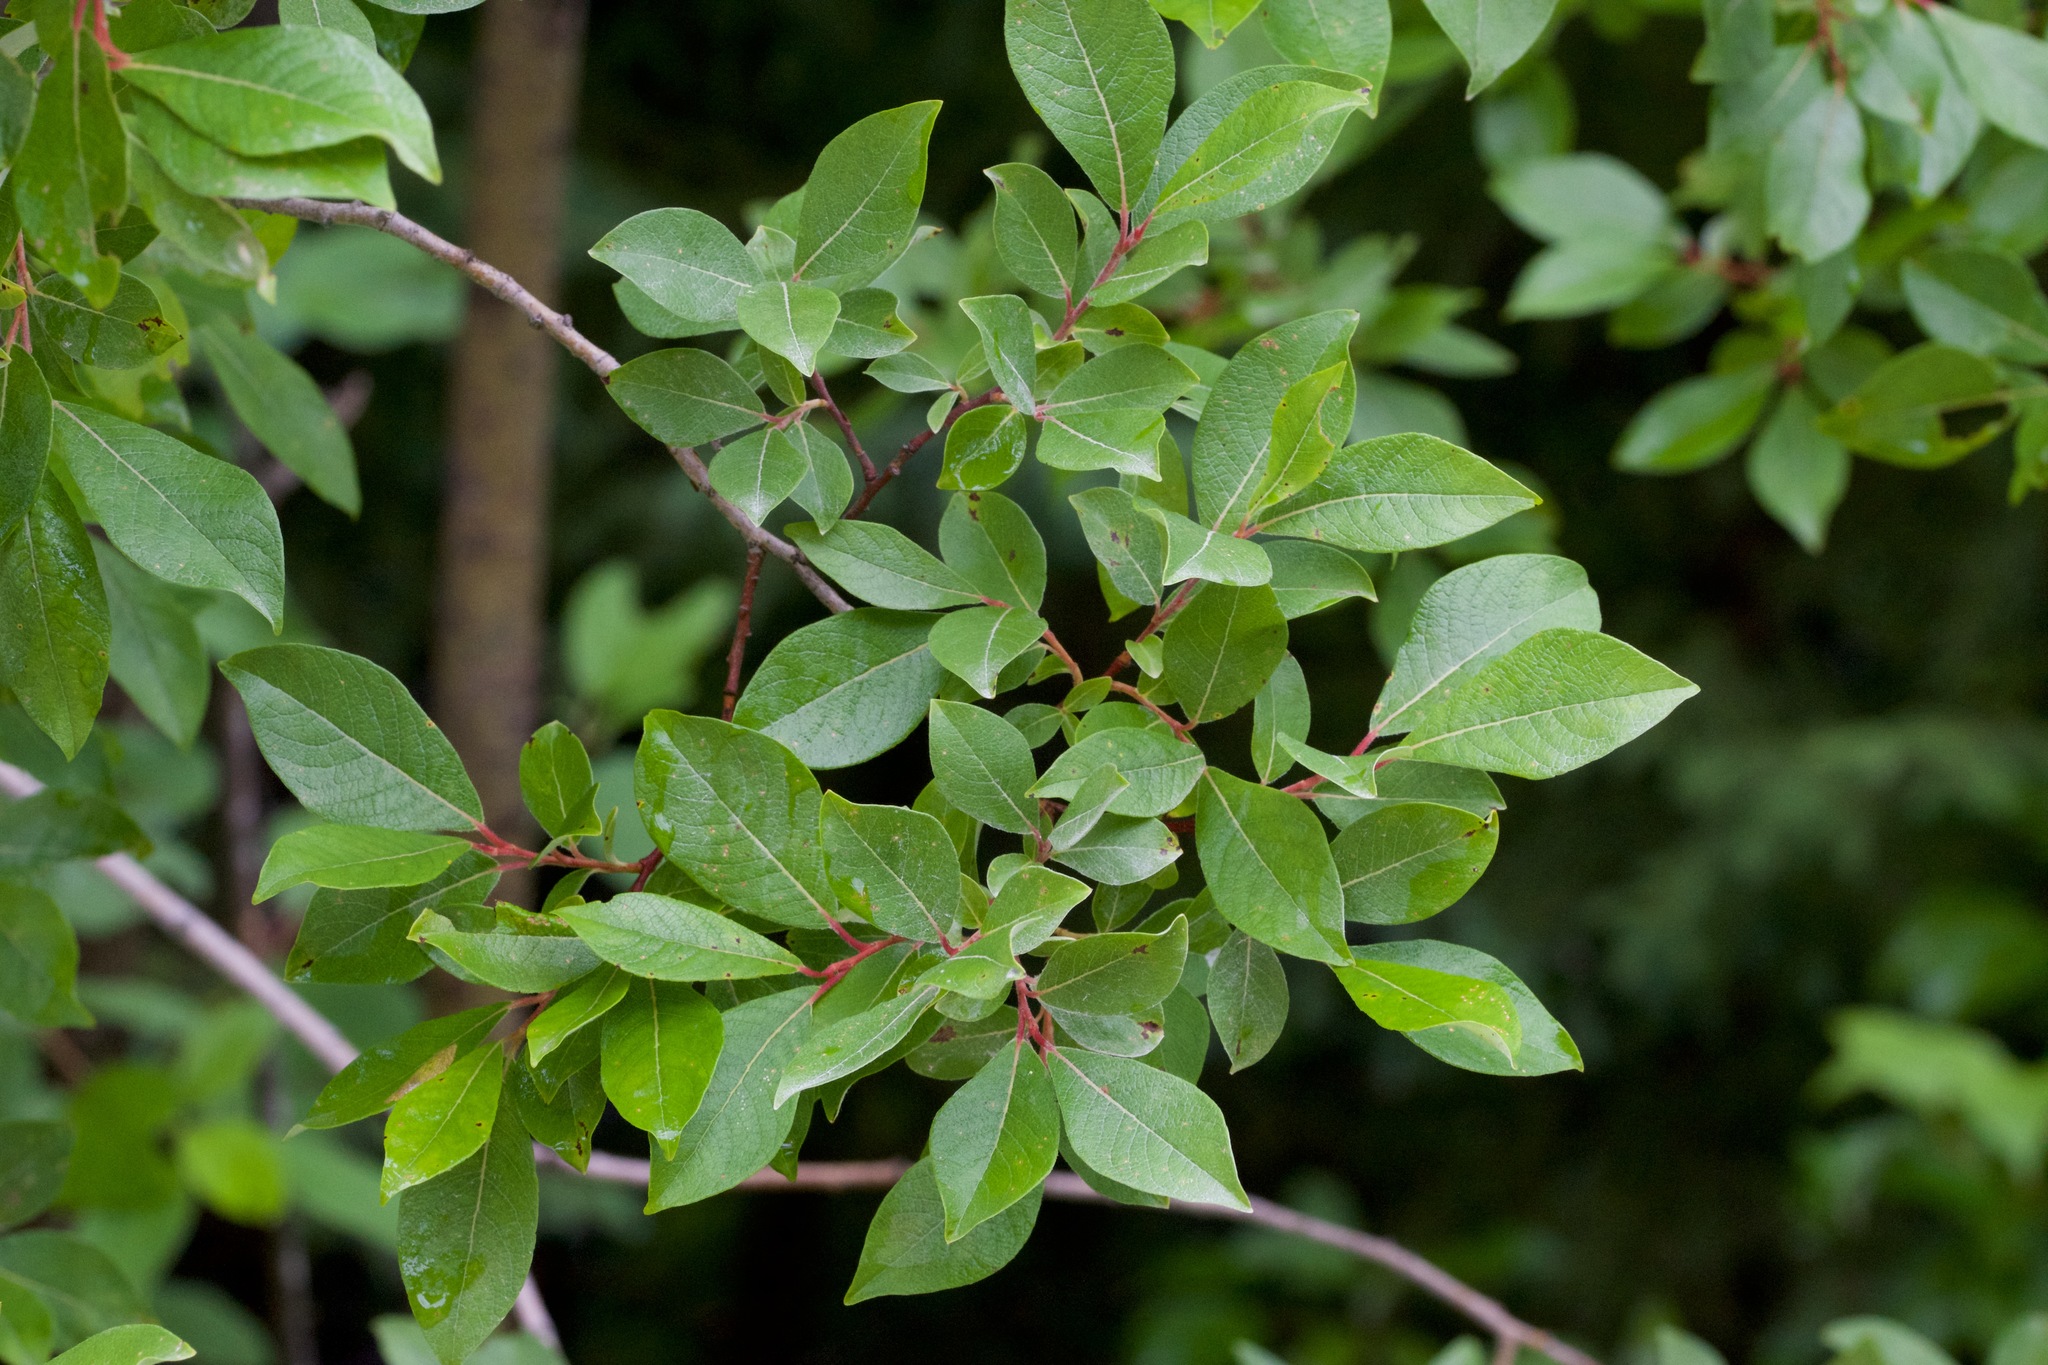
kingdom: Plantae
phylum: Tracheophyta
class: Magnoliopsida
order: Malpighiales
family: Salicaceae
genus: Salix
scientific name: Salix bebbiana
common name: Bebb's willow
